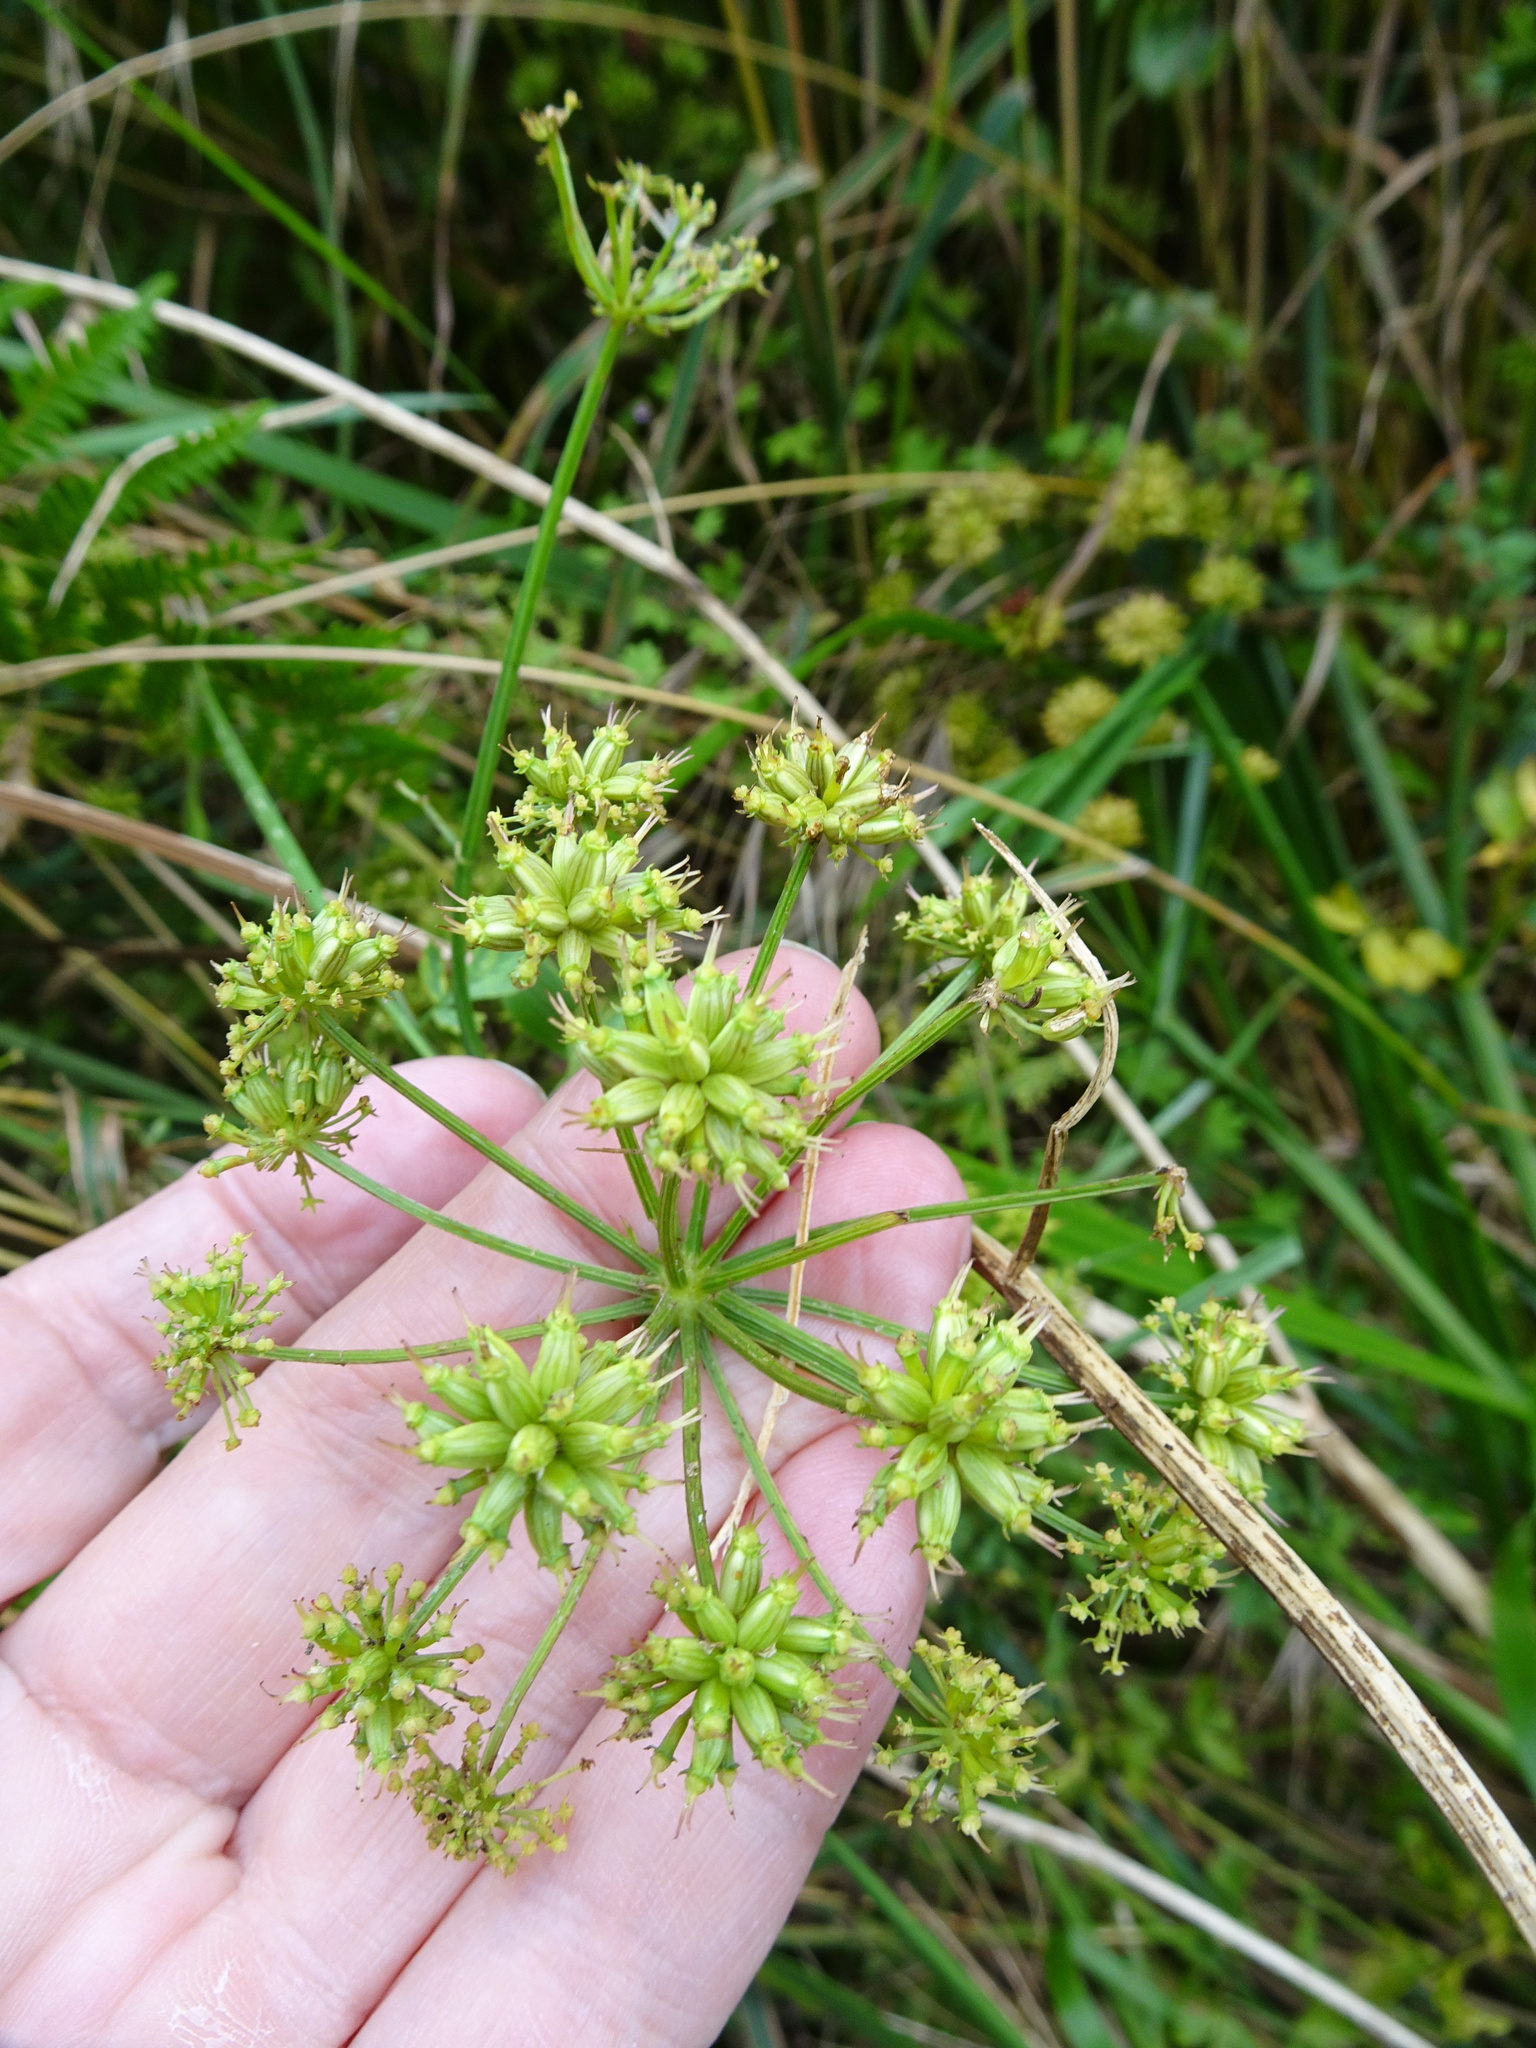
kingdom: Plantae
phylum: Tracheophyta
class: Magnoliopsida
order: Apiales
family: Apiaceae
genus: Oenanthe
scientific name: Oenanthe crocata
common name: Hemlock water-dropwort
